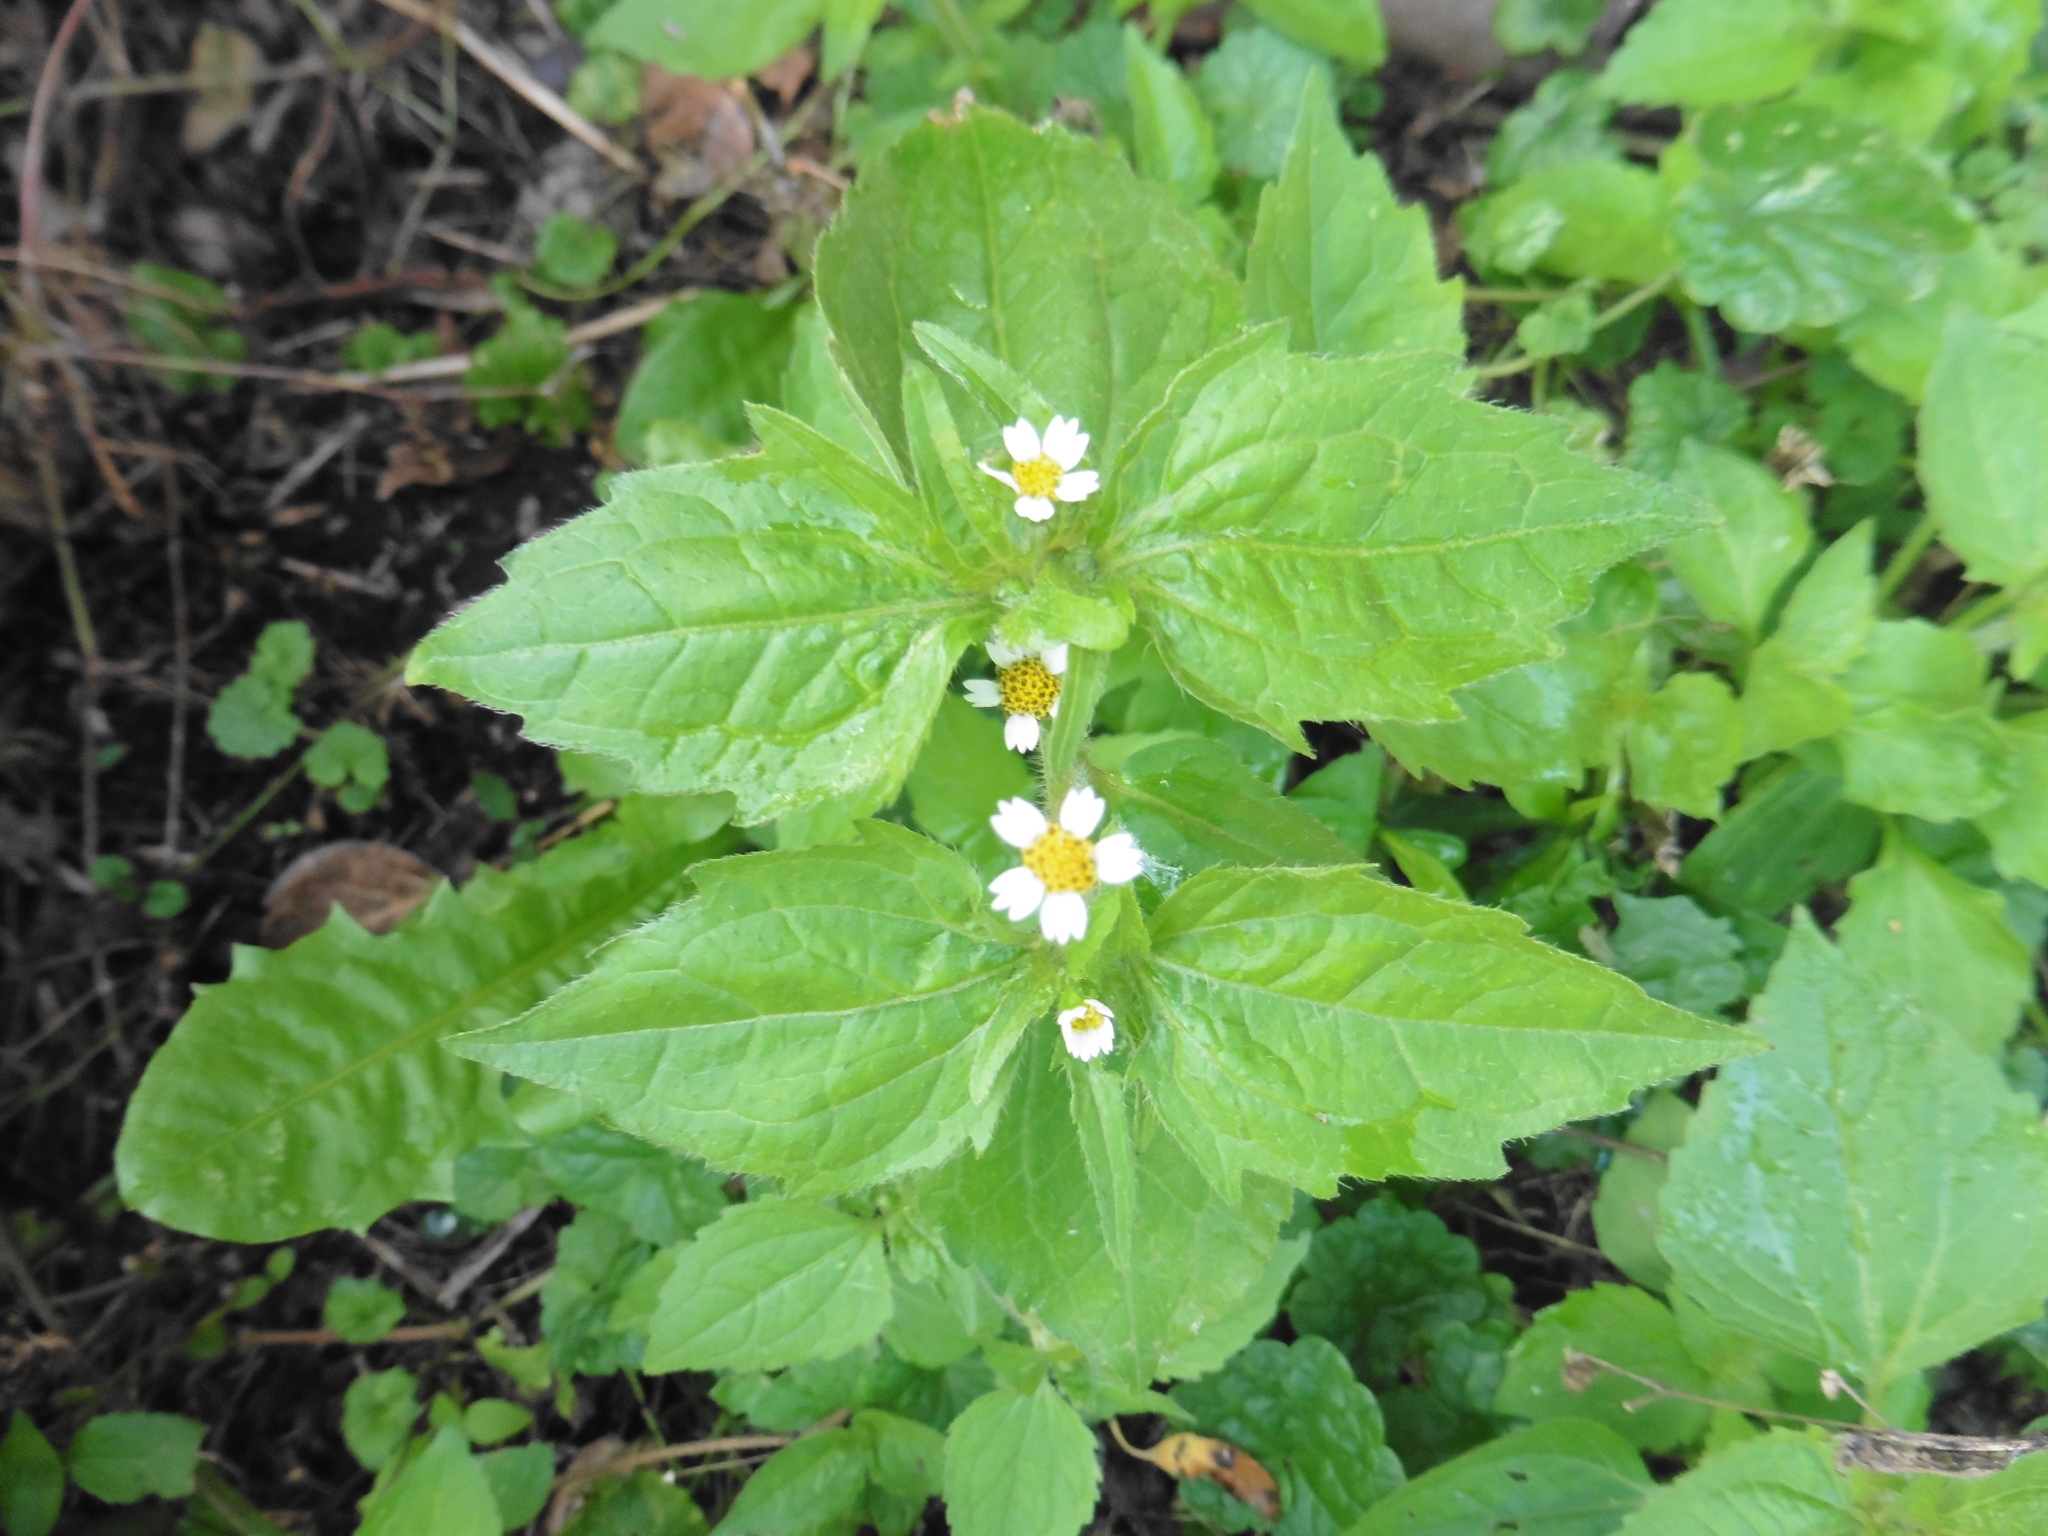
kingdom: Plantae
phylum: Tracheophyta
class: Magnoliopsida
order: Asterales
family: Asteraceae
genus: Galinsoga
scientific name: Galinsoga quadriradiata
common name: Shaggy soldier
